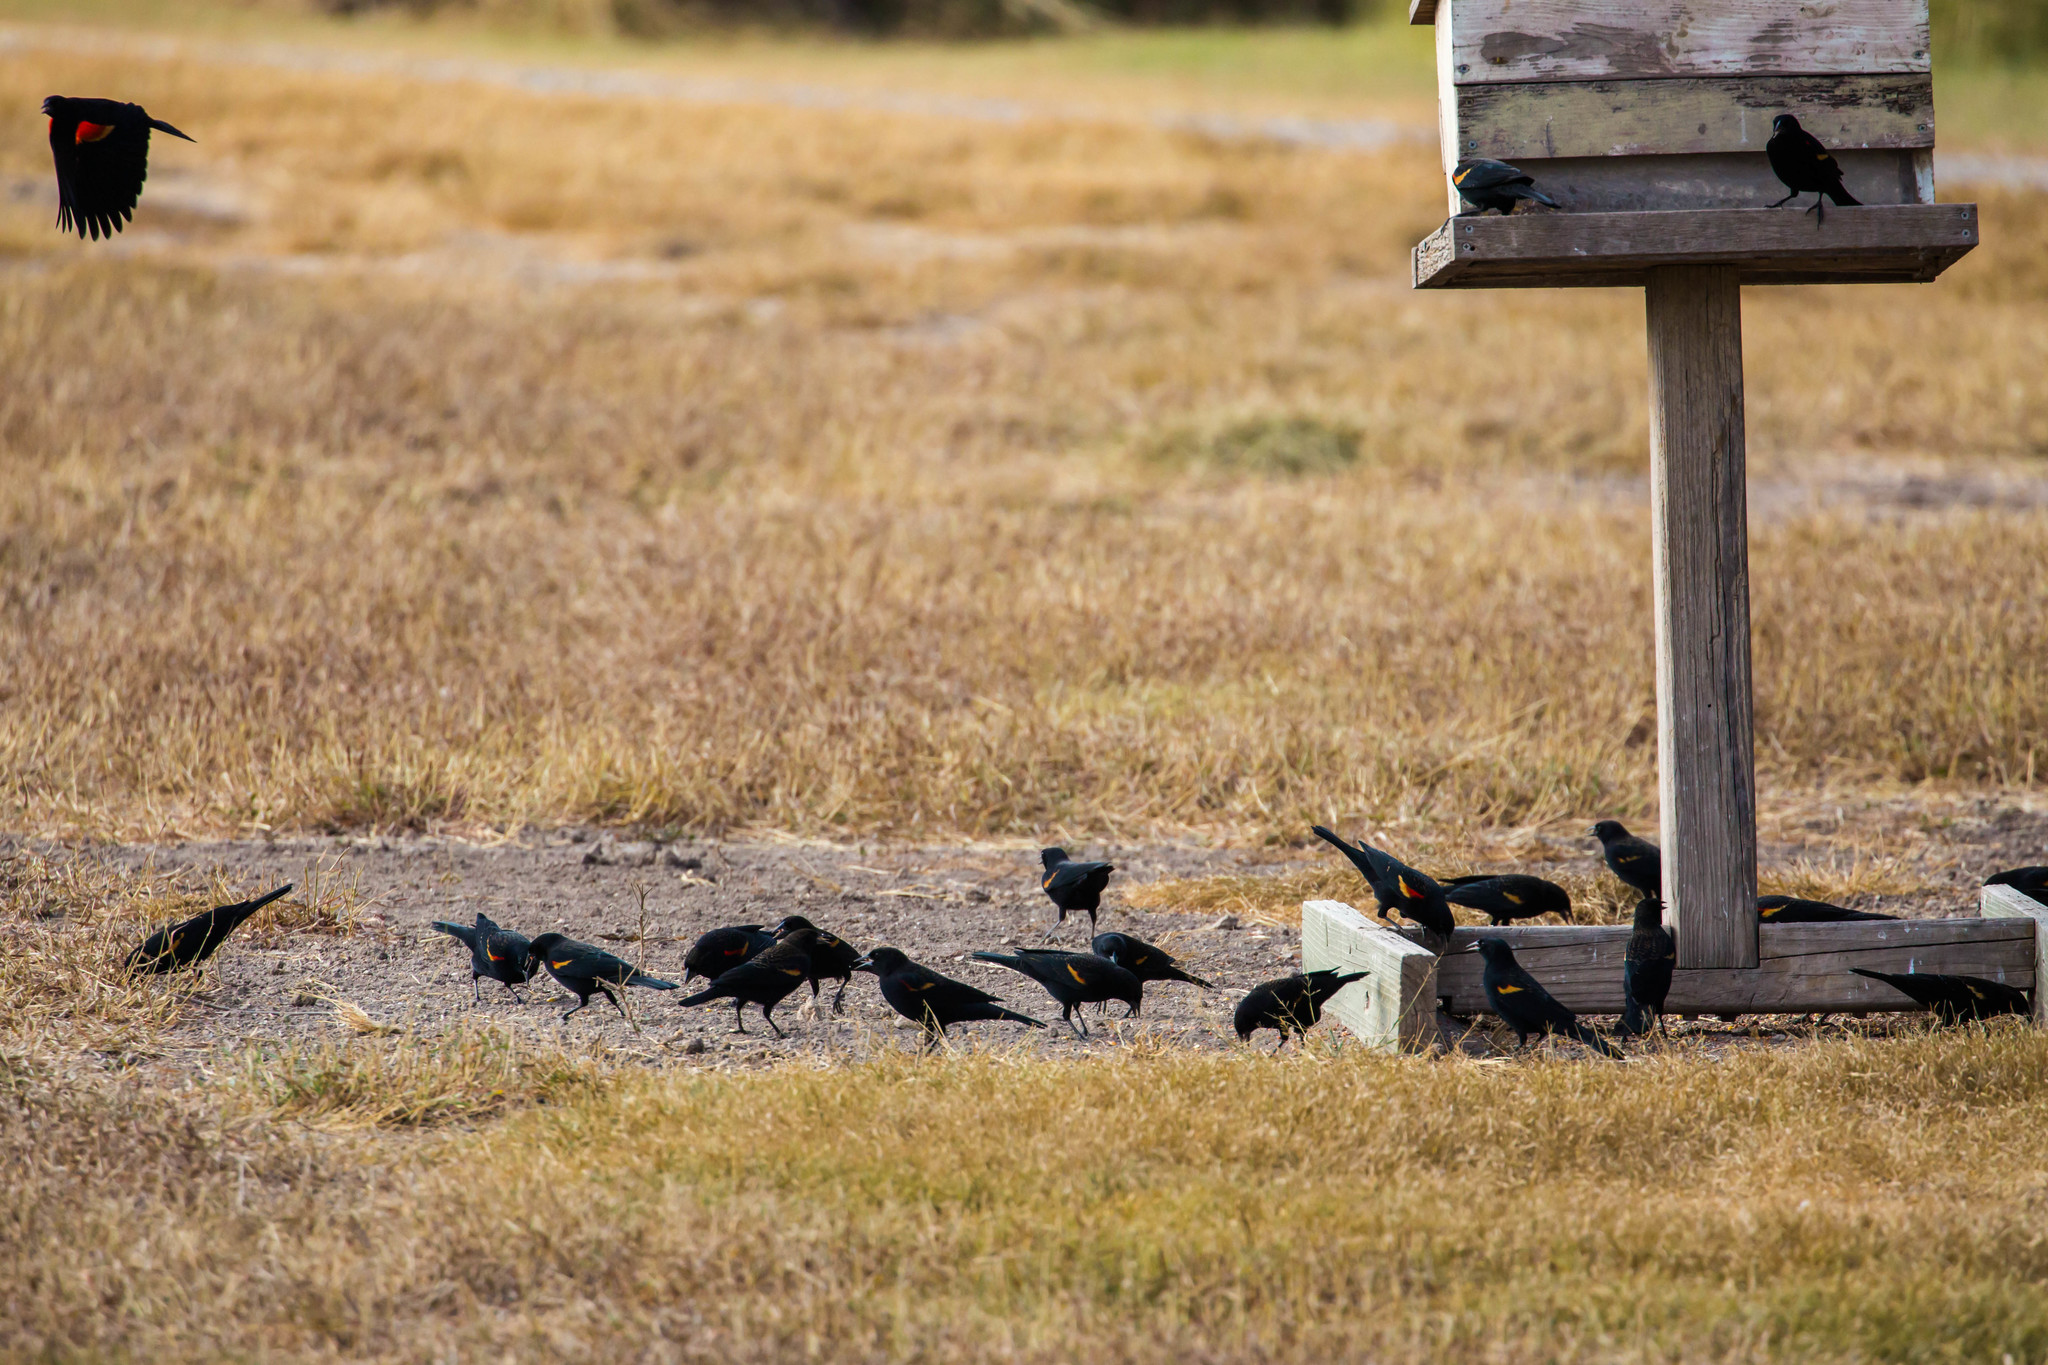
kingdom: Animalia
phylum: Chordata
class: Aves
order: Passeriformes
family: Icteridae
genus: Agelaius
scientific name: Agelaius phoeniceus
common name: Red-winged blackbird
